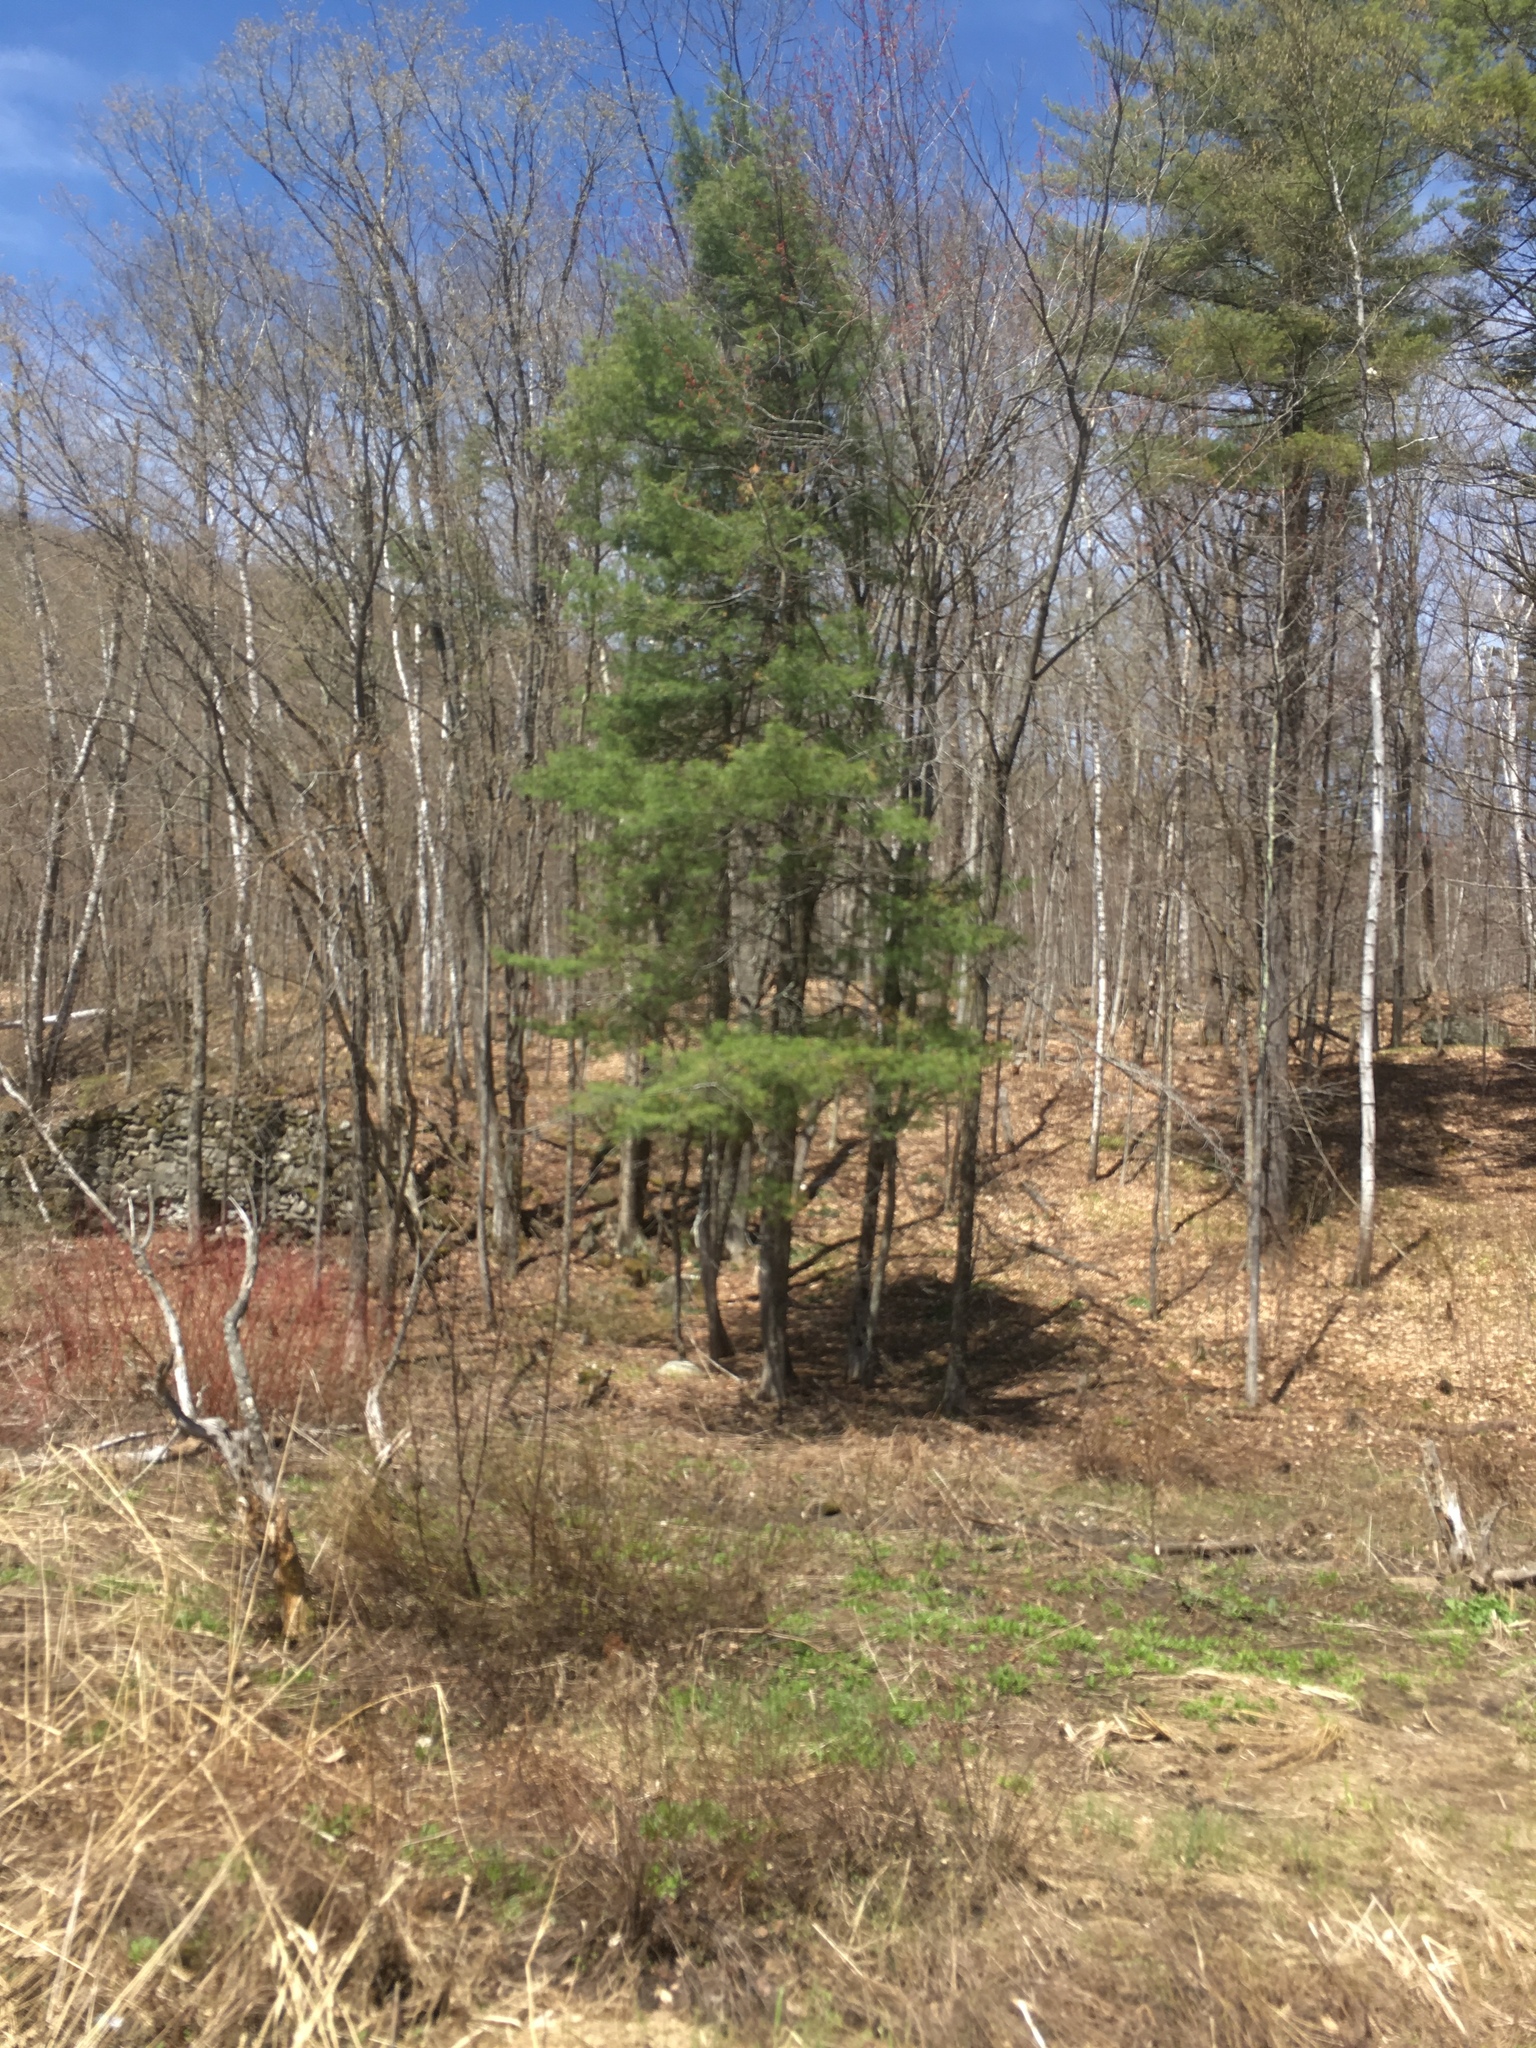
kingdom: Plantae
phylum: Tracheophyta
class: Pinopsida
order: Pinales
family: Pinaceae
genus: Pinus
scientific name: Pinus strobus
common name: Weymouth pine
